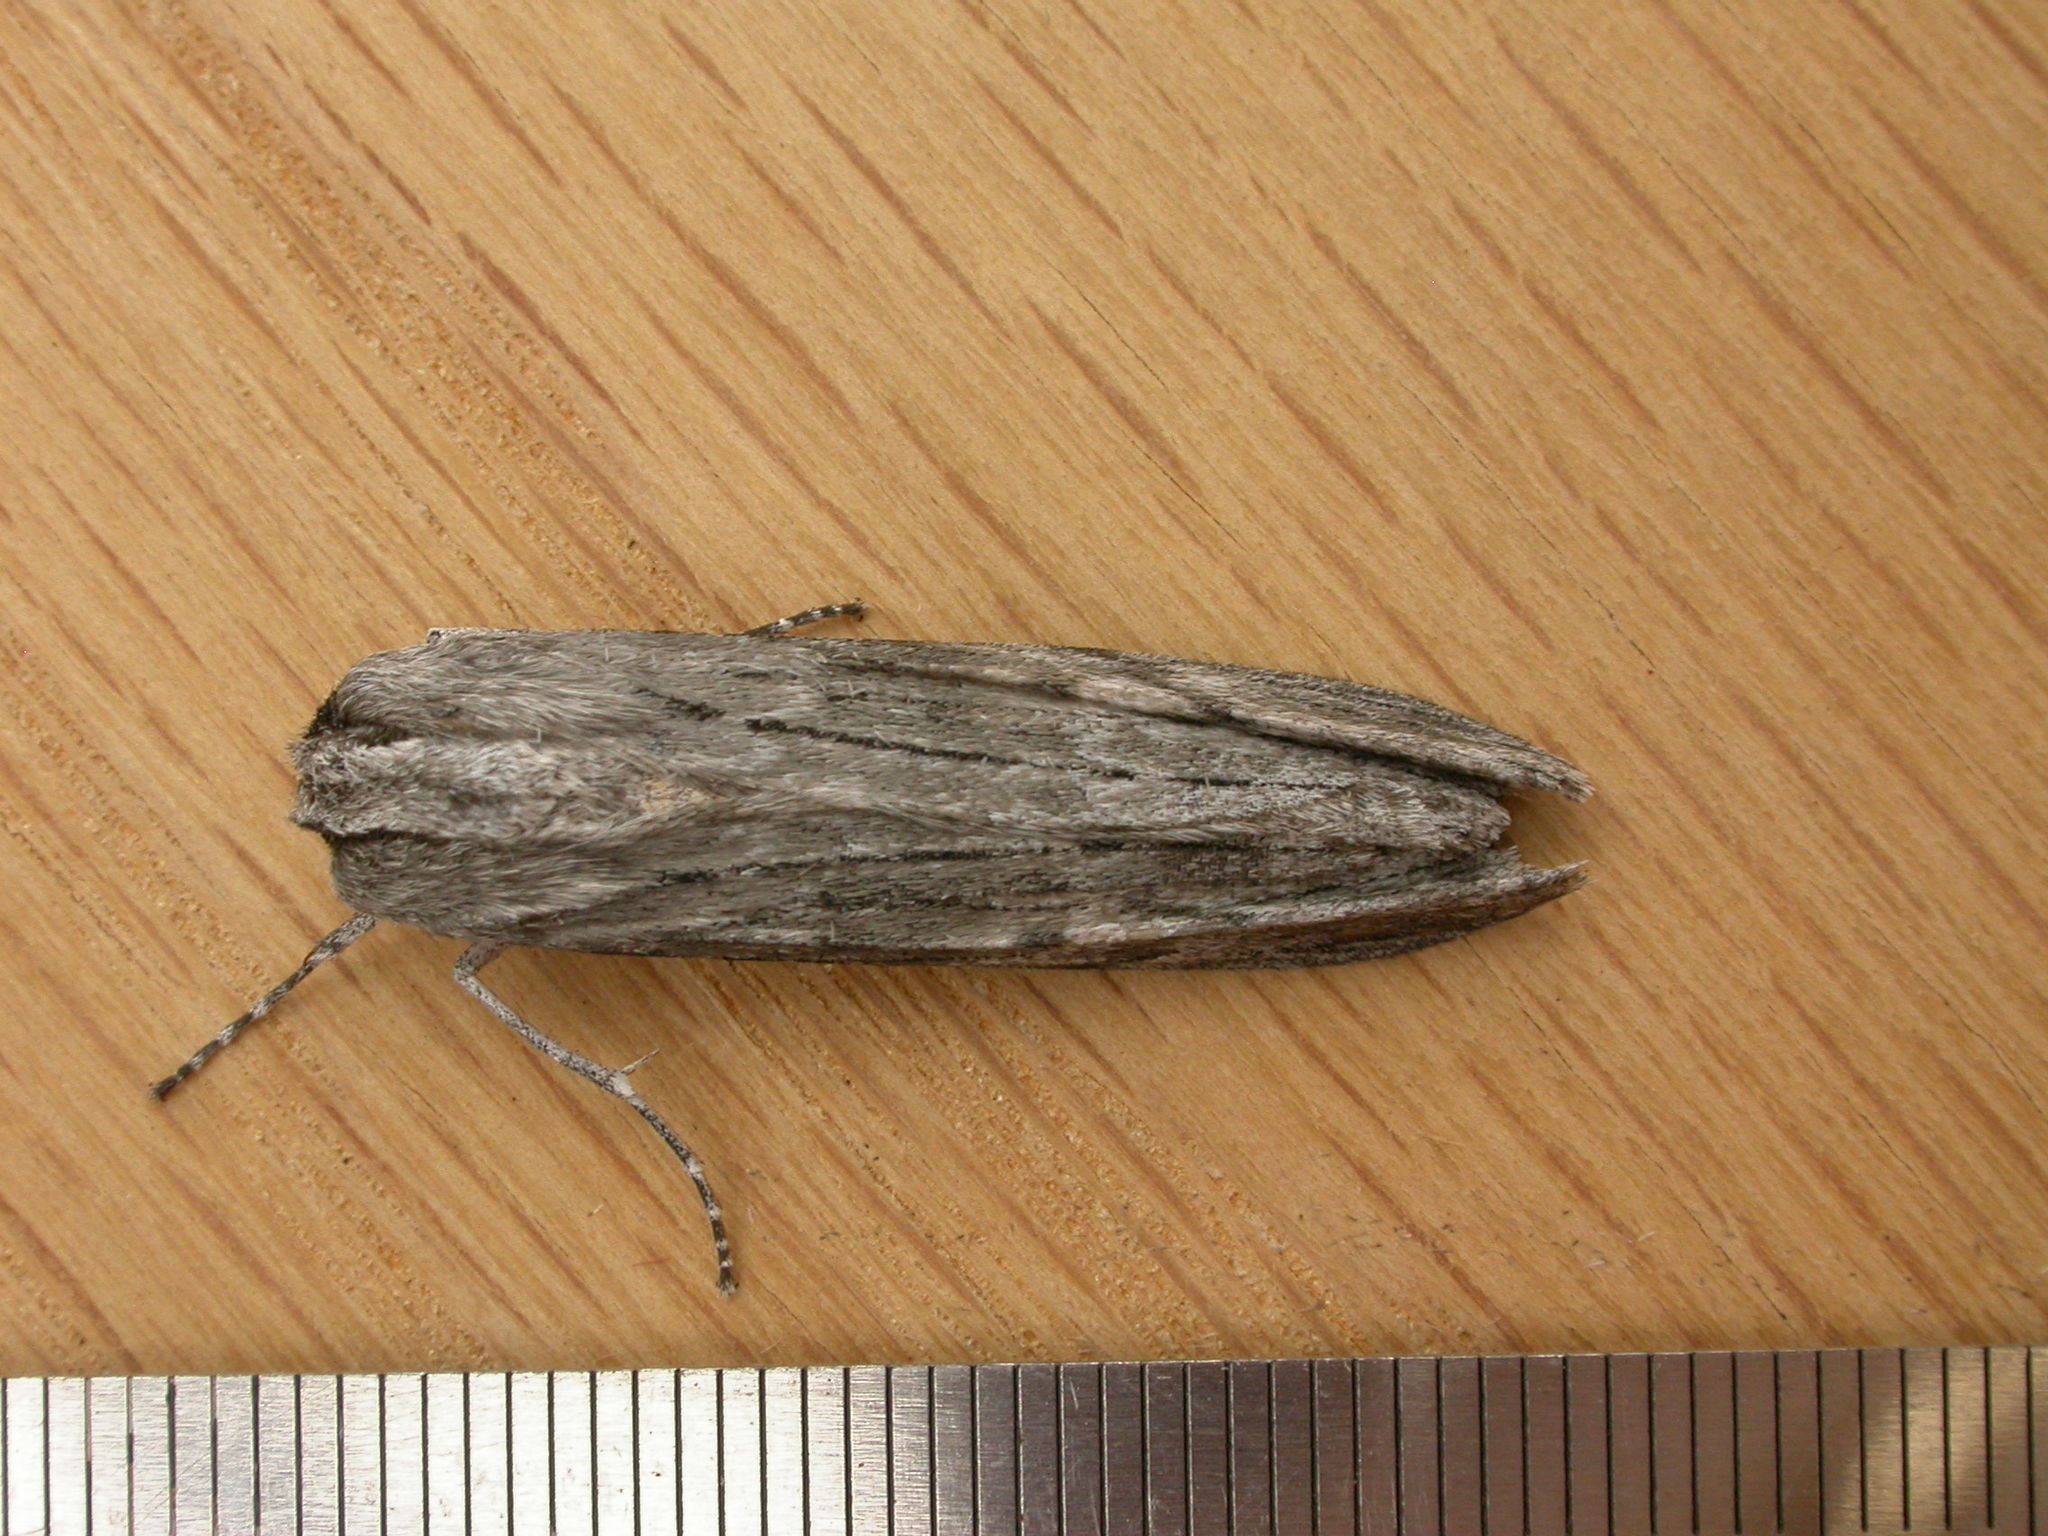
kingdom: Animalia
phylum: Arthropoda
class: Insecta
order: Lepidoptera
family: Geometridae
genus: Capusa
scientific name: Capusa senilis
